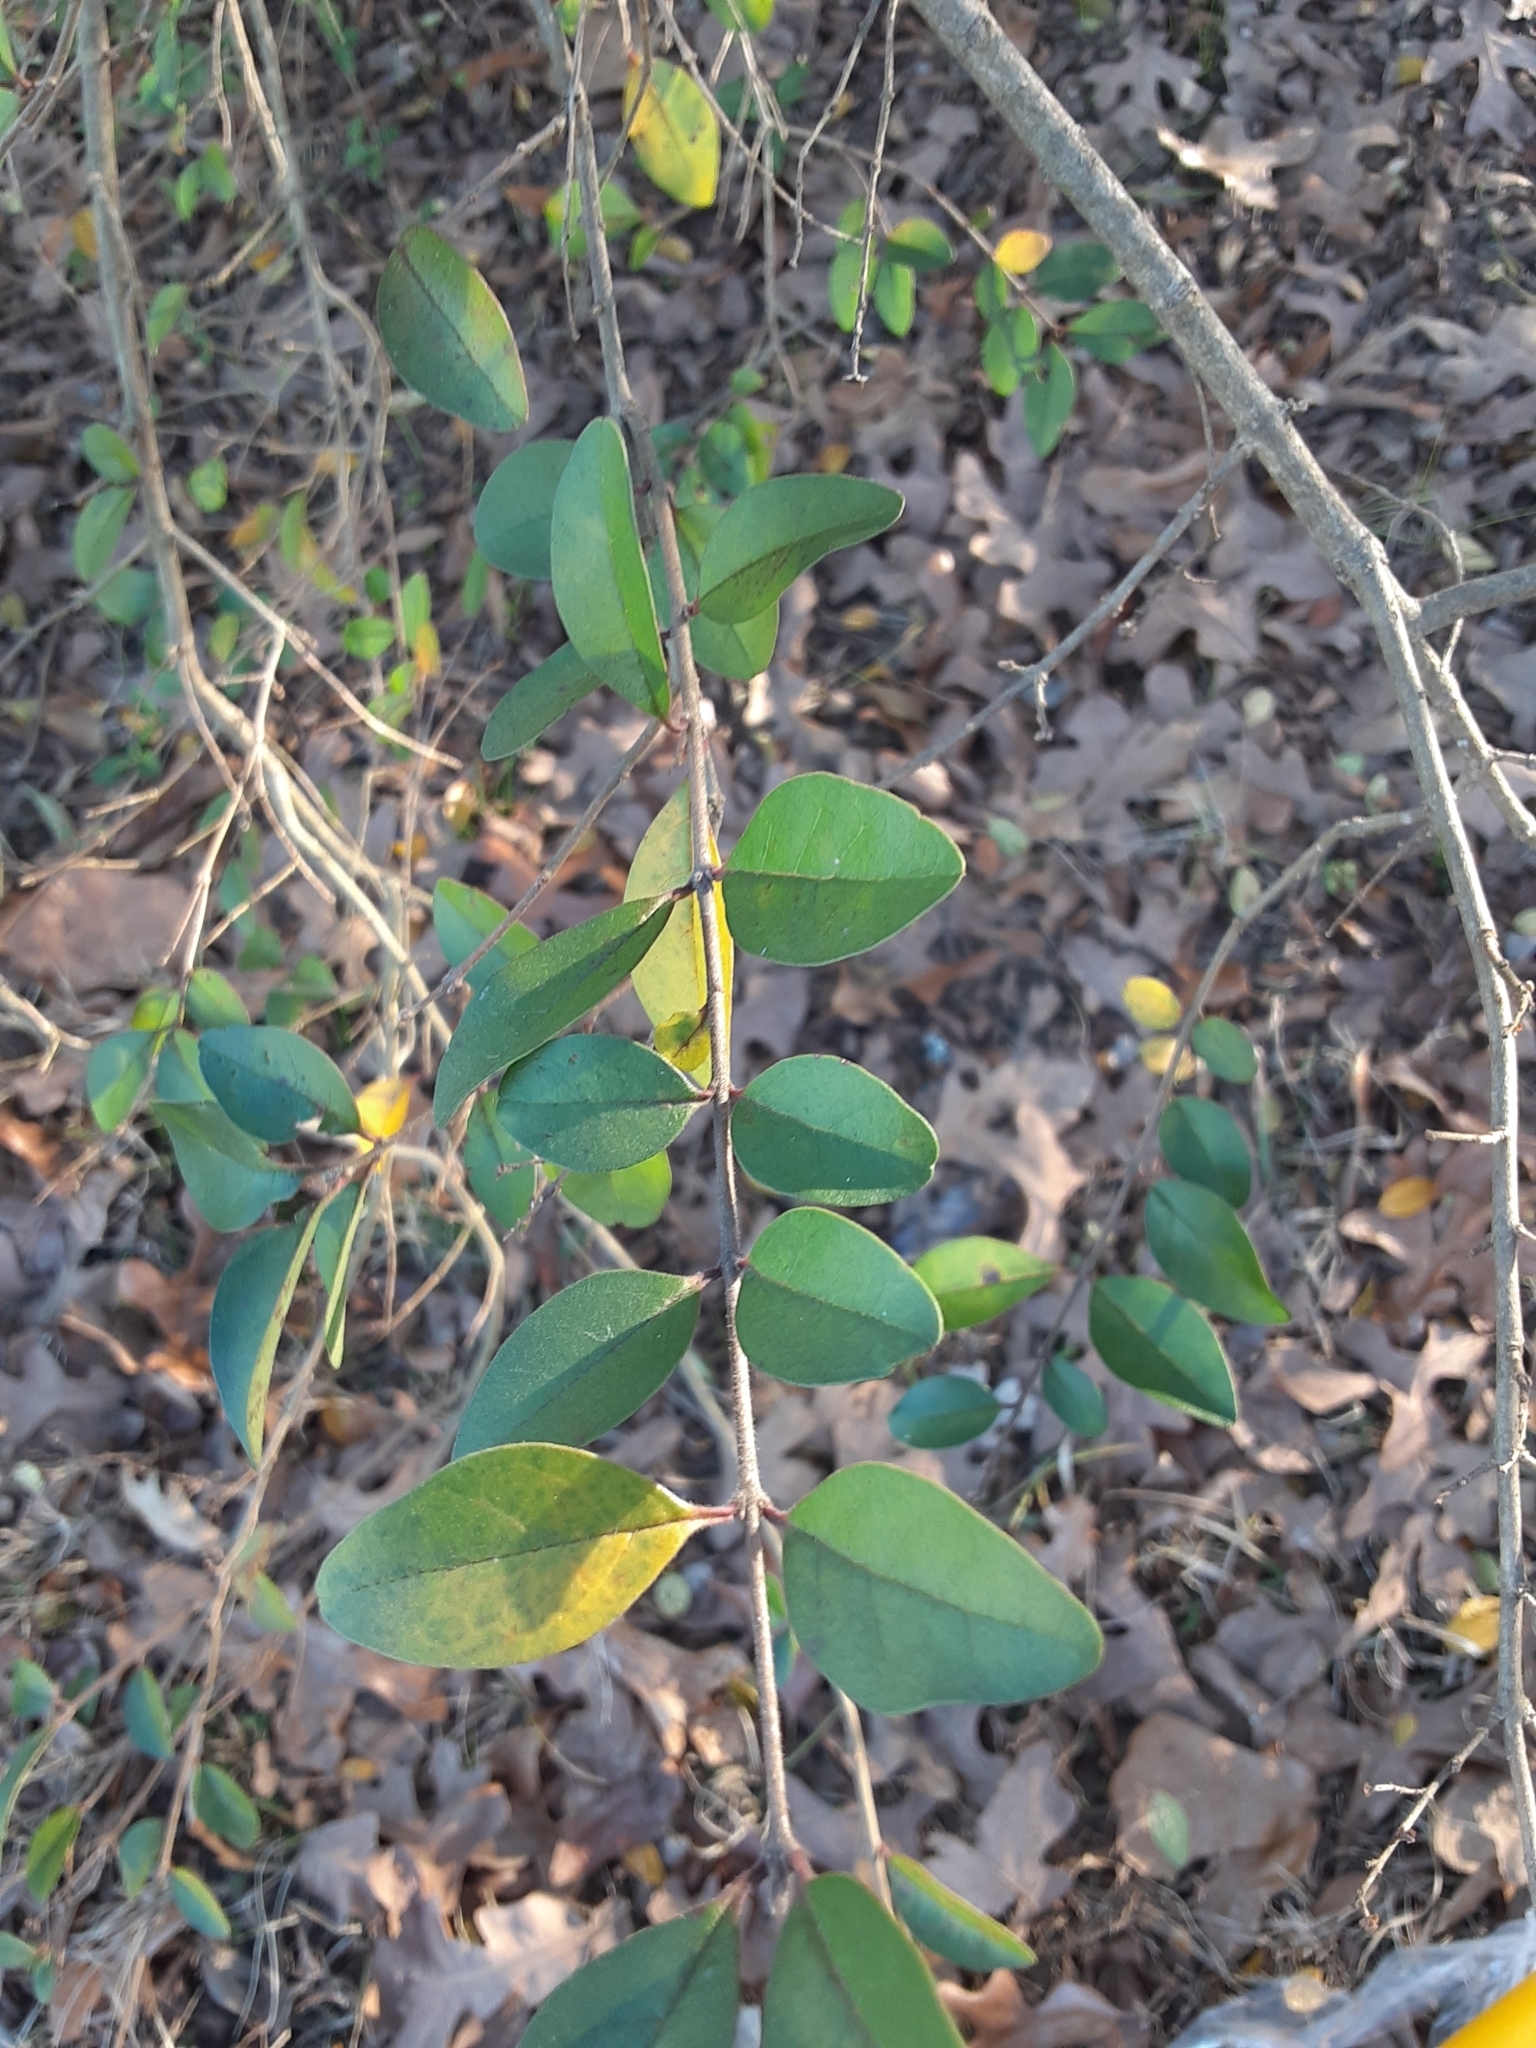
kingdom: Plantae
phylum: Tracheophyta
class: Magnoliopsida
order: Lamiales
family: Oleaceae
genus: Ligustrum
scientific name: Ligustrum sinense
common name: Chinese privet
